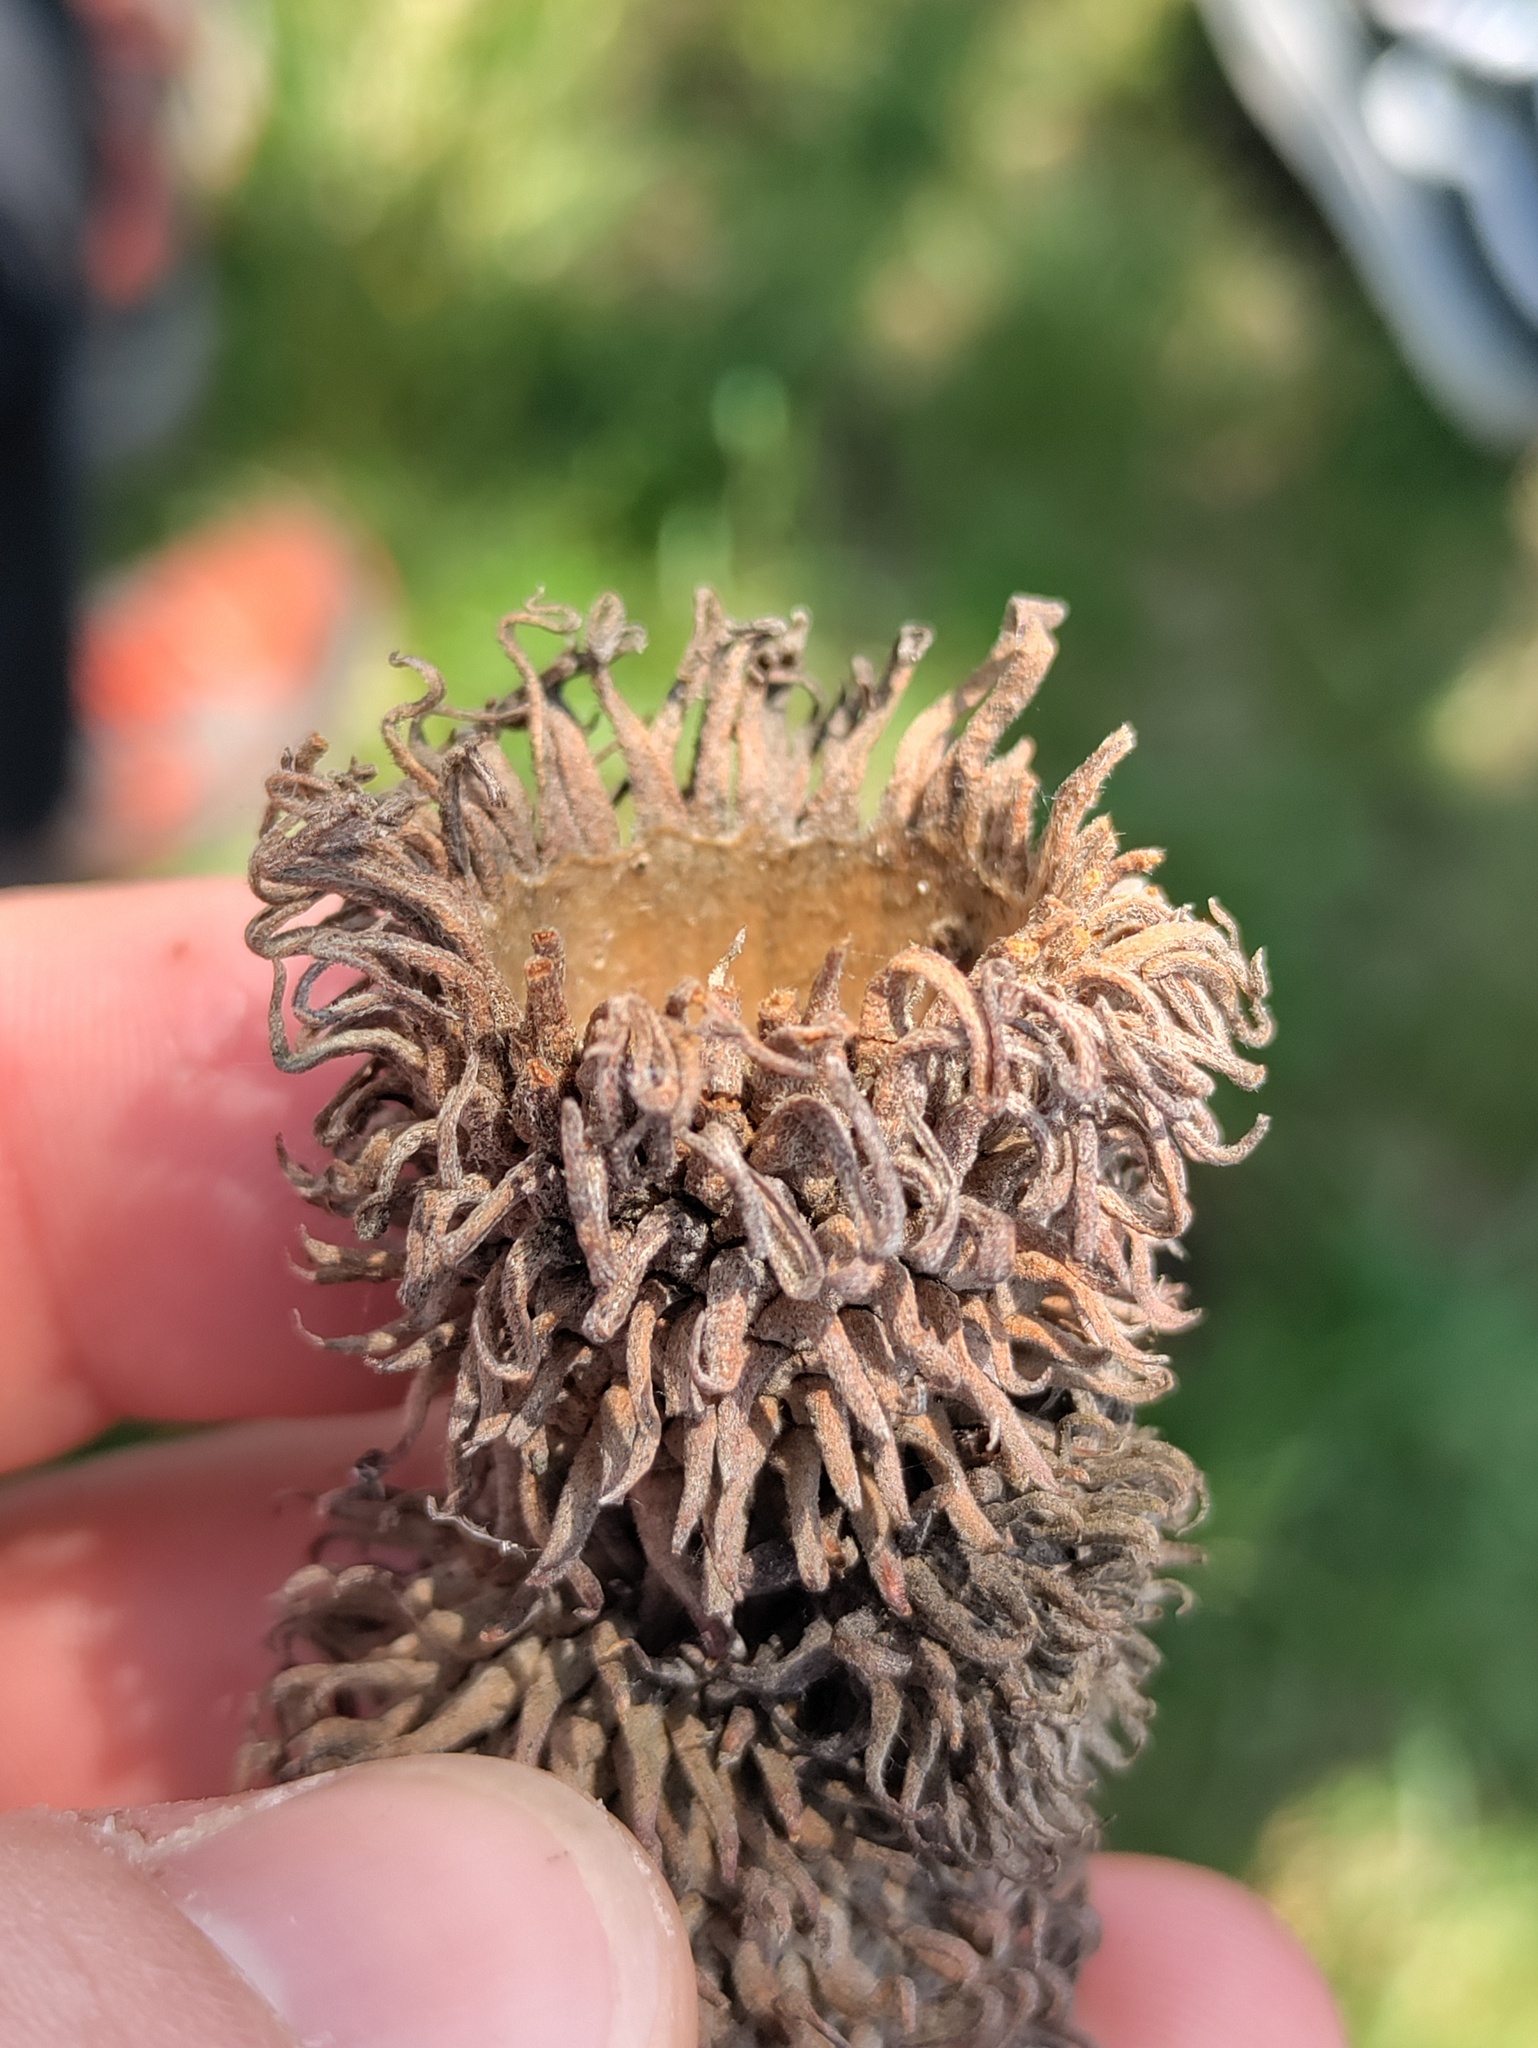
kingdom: Plantae
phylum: Tracheophyta
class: Magnoliopsida
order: Fagales
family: Fagaceae
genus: Quercus
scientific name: Quercus cerris
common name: Turkey oak
